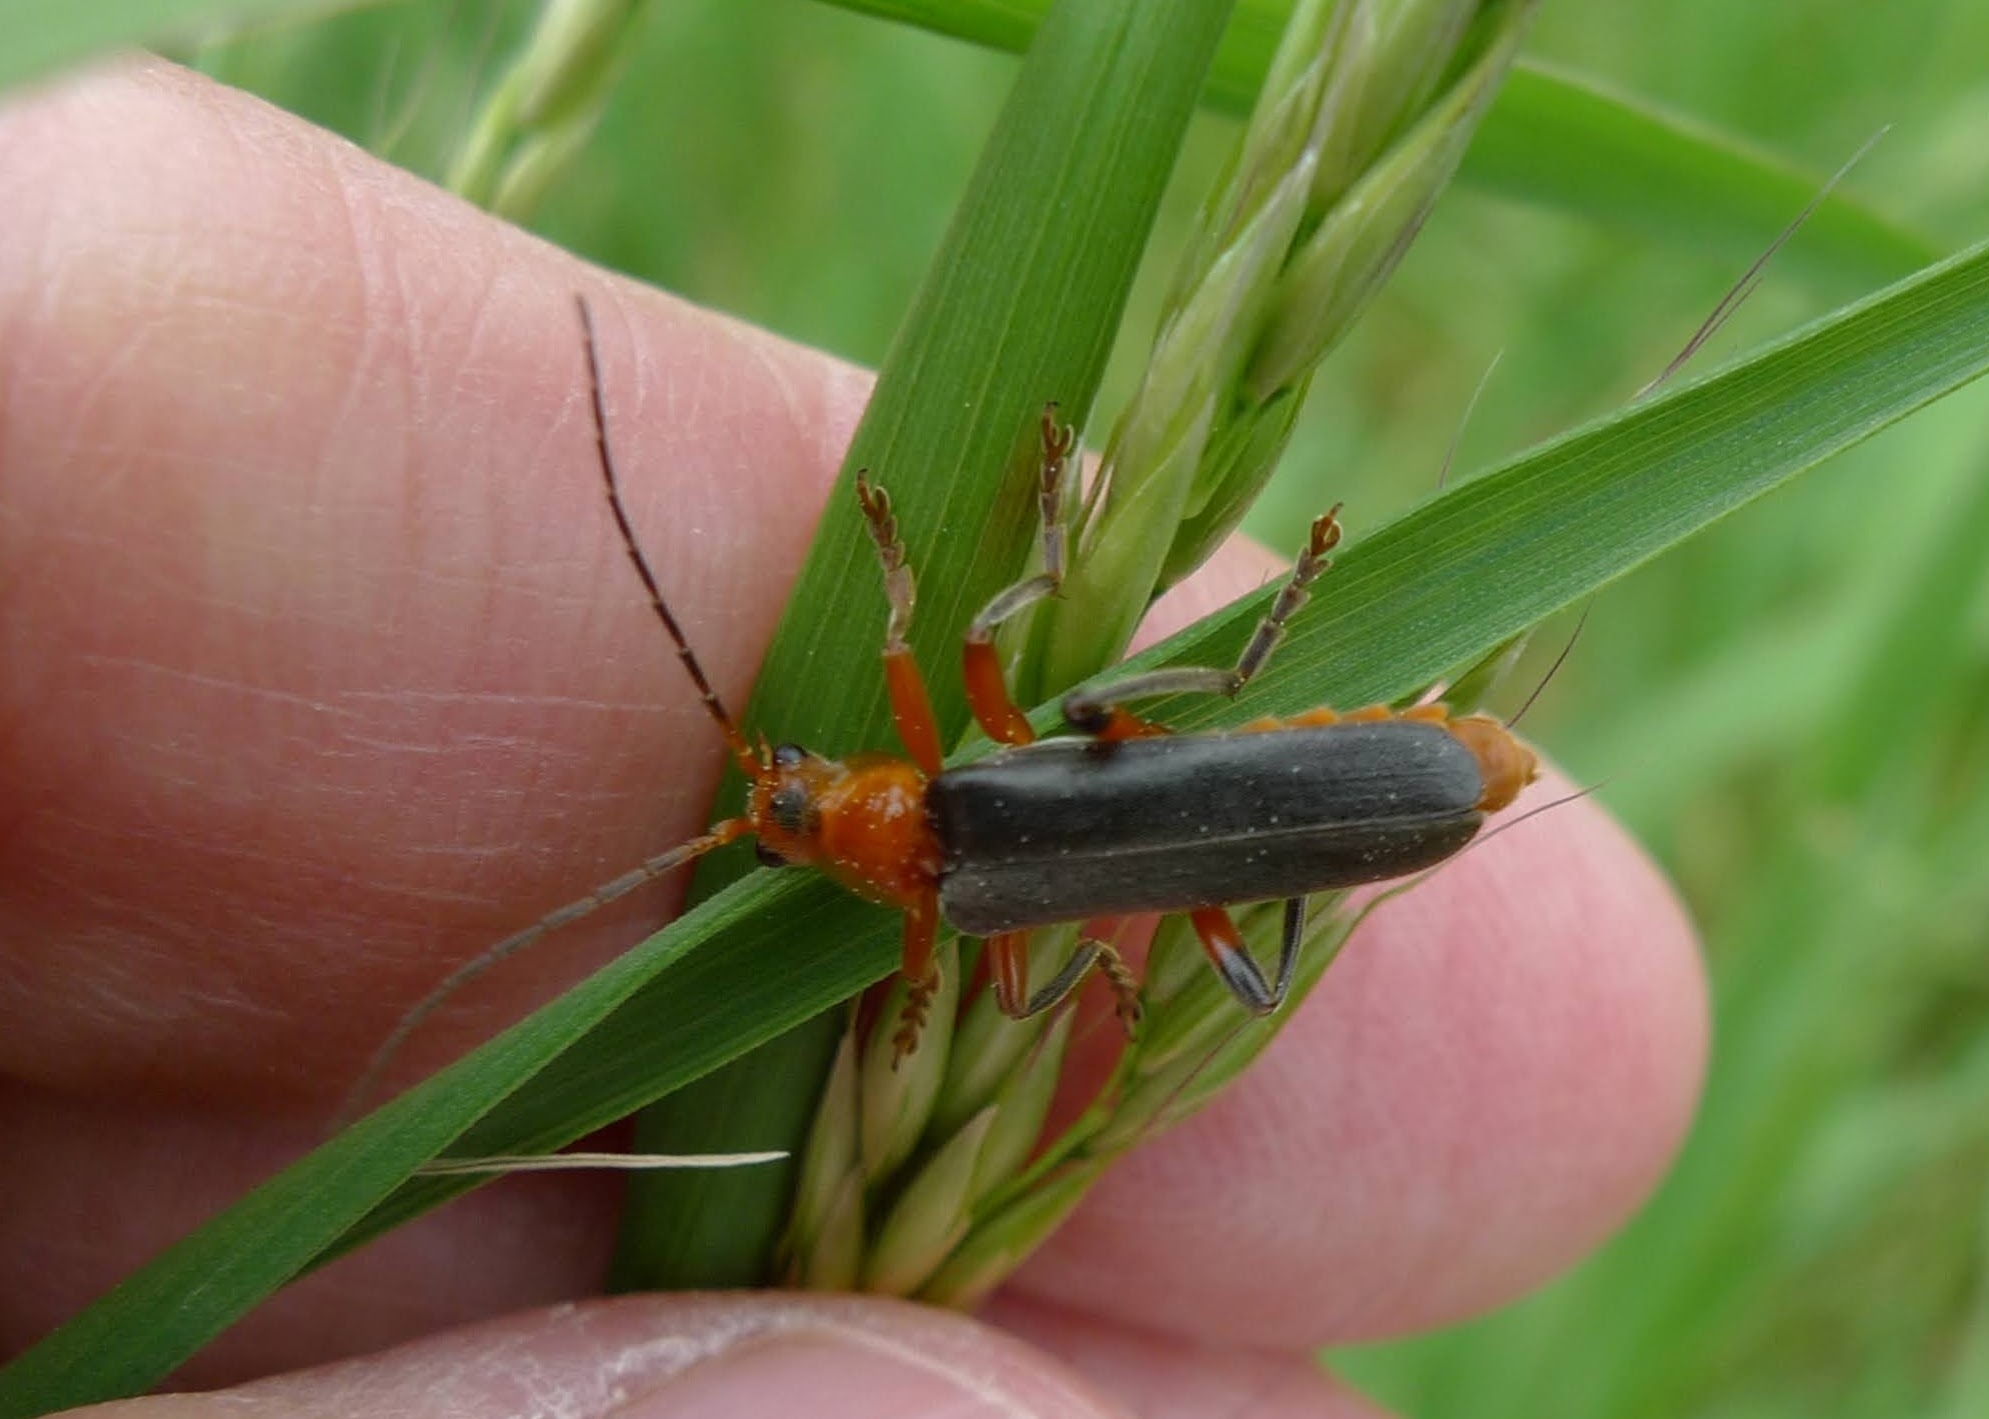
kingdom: Animalia
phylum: Arthropoda
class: Insecta
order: Coleoptera
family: Cantharidae
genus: Cantharis
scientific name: Cantharis livida
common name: Livid soldier beetle
